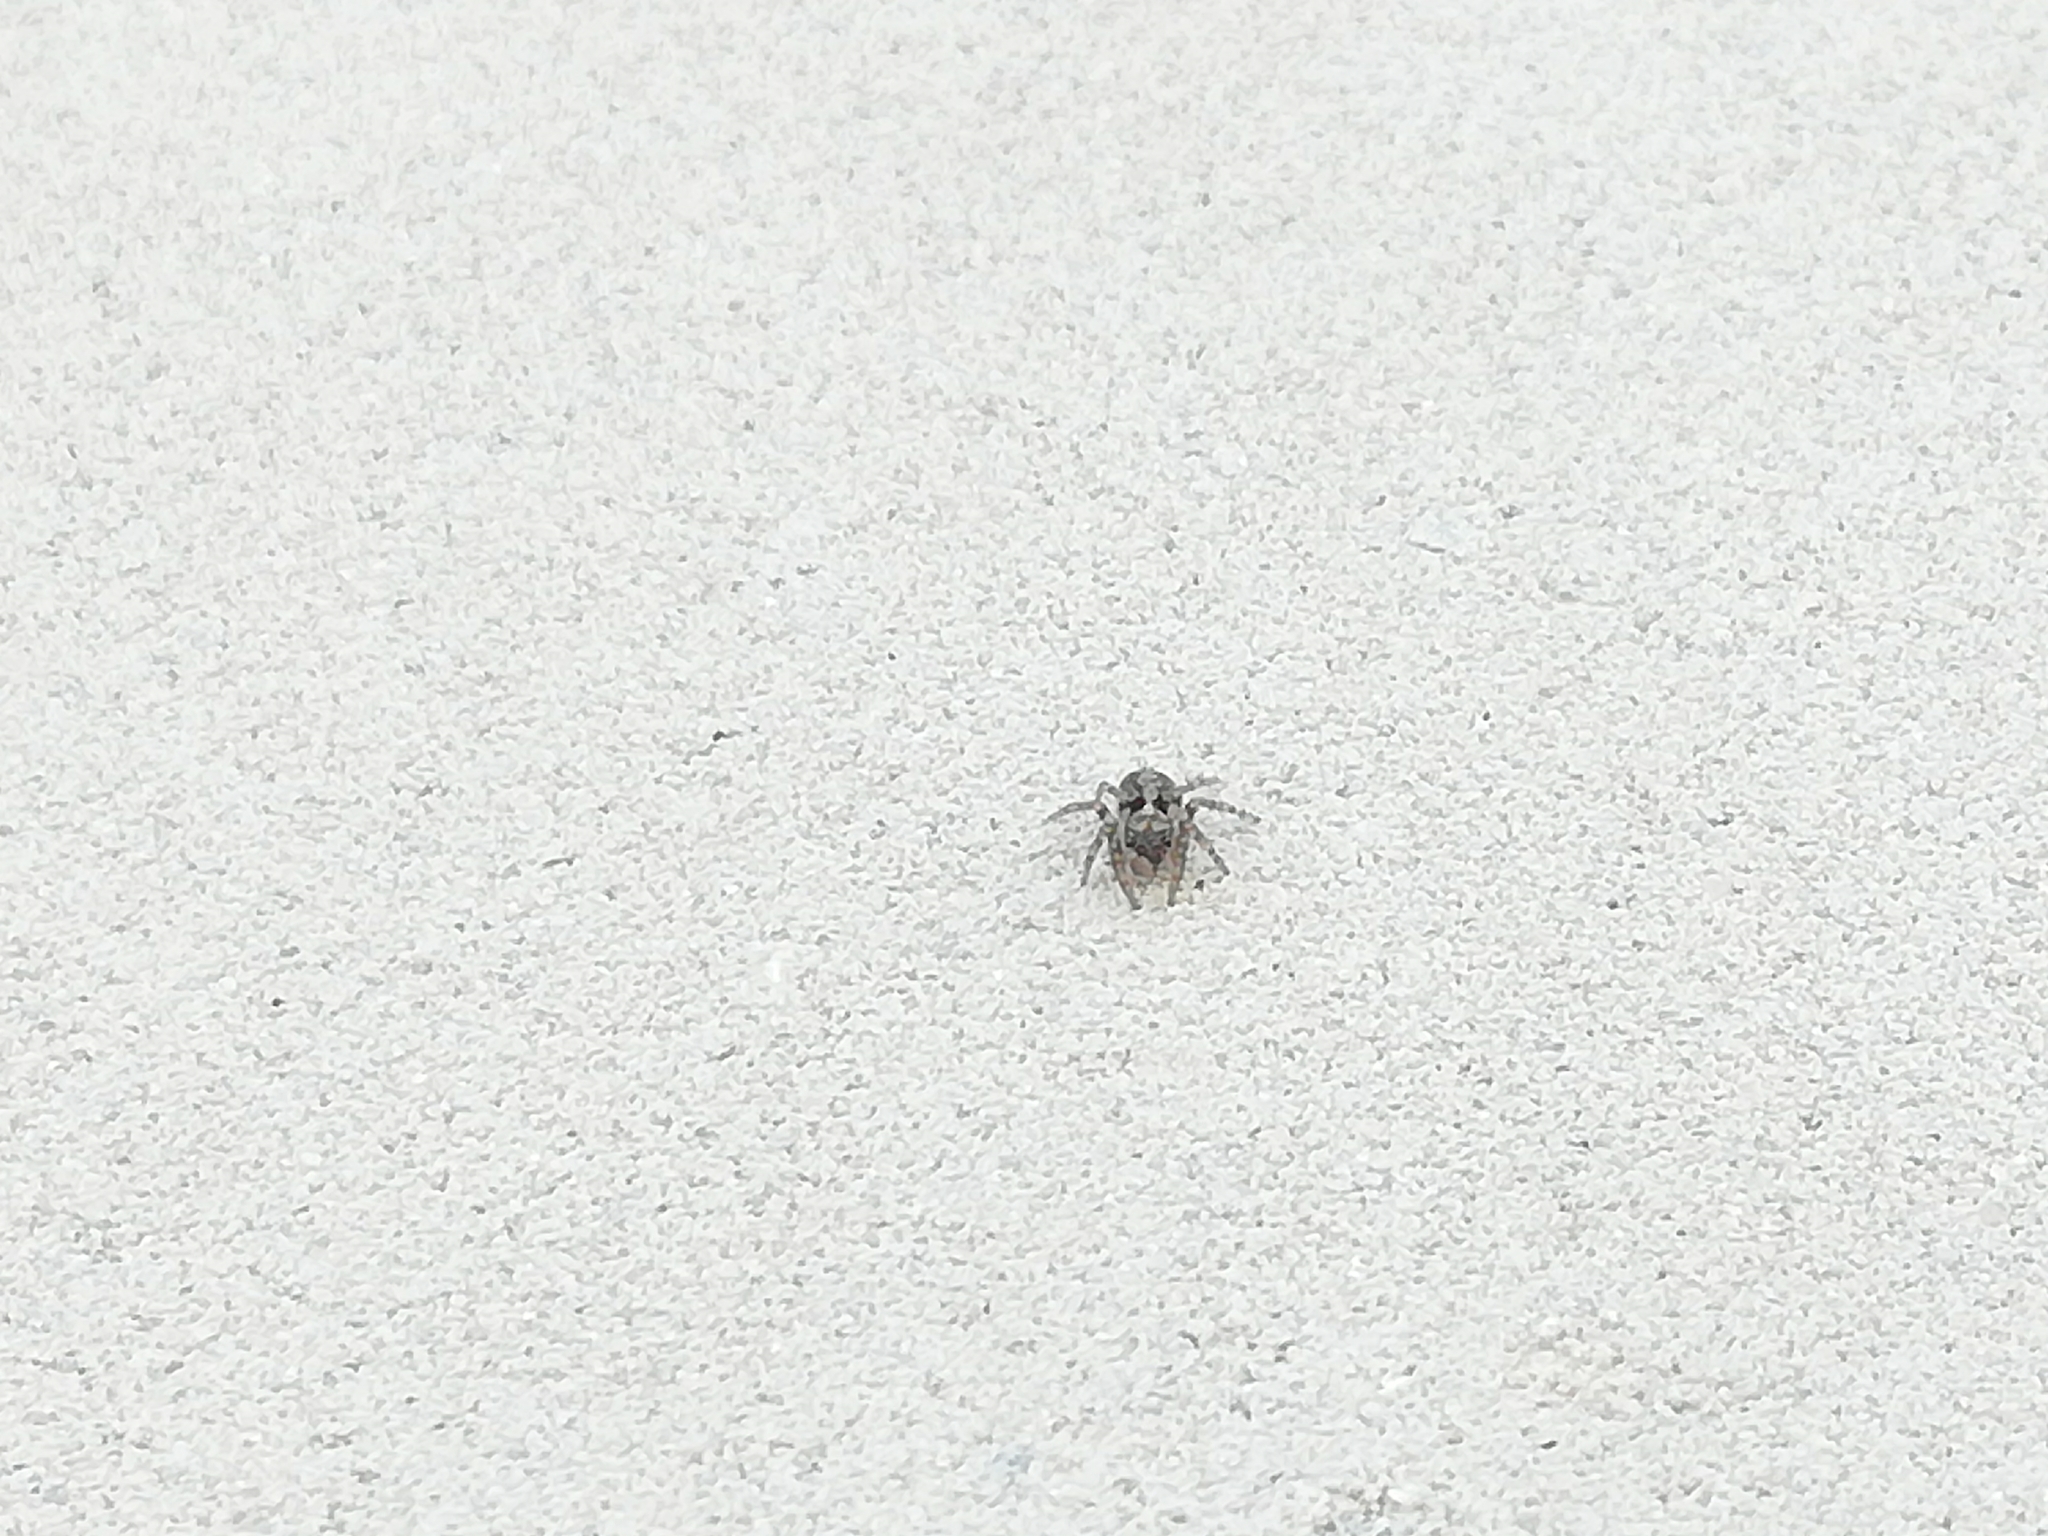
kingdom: Animalia
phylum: Arthropoda
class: Arachnida
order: Araneae
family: Salticidae
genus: Attulus
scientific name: Attulus terebratus
